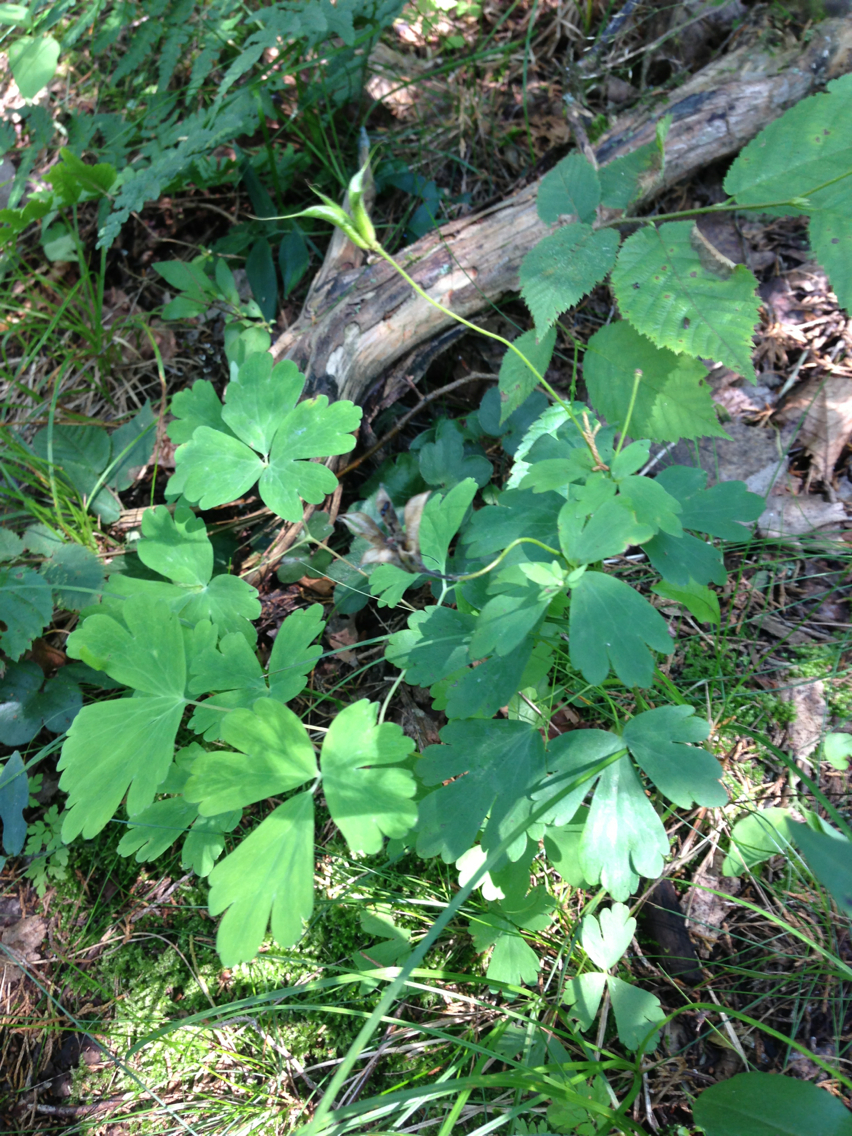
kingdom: Plantae
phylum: Tracheophyta
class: Magnoliopsida
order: Ranunculales
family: Ranunculaceae
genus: Aquilegia
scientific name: Aquilegia canadensis
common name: American columbine
